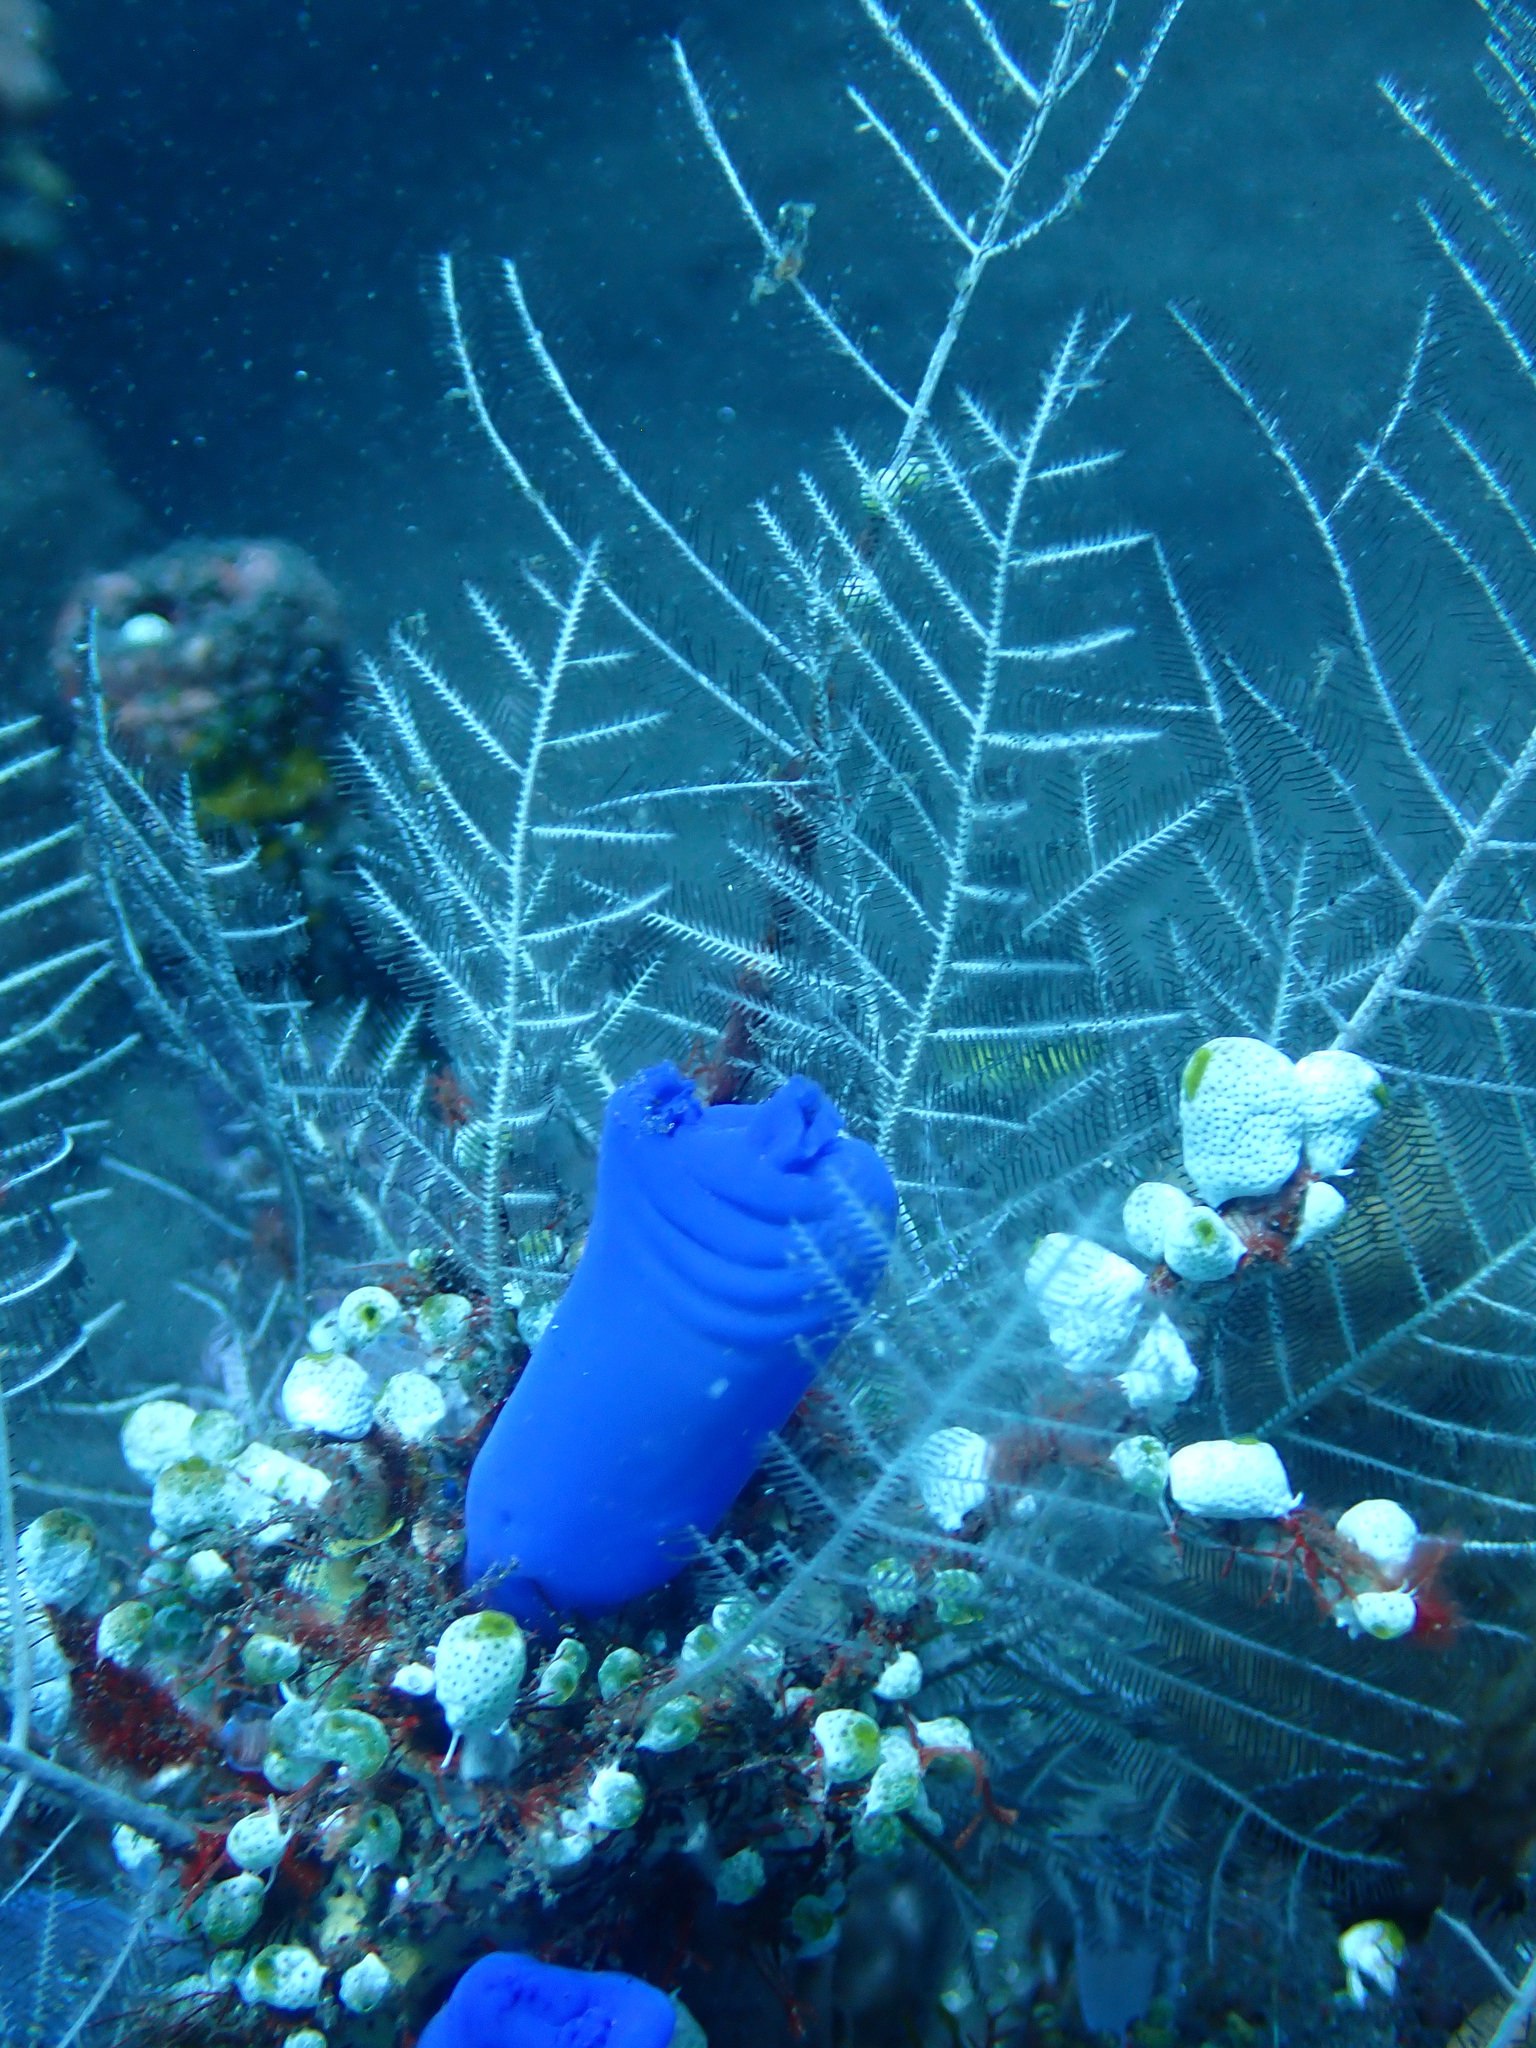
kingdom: Animalia
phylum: Chordata
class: Ascidiacea
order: Aplousobranchia
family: Diazonidae
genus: Rhopalaea
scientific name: Rhopalaea fusca
